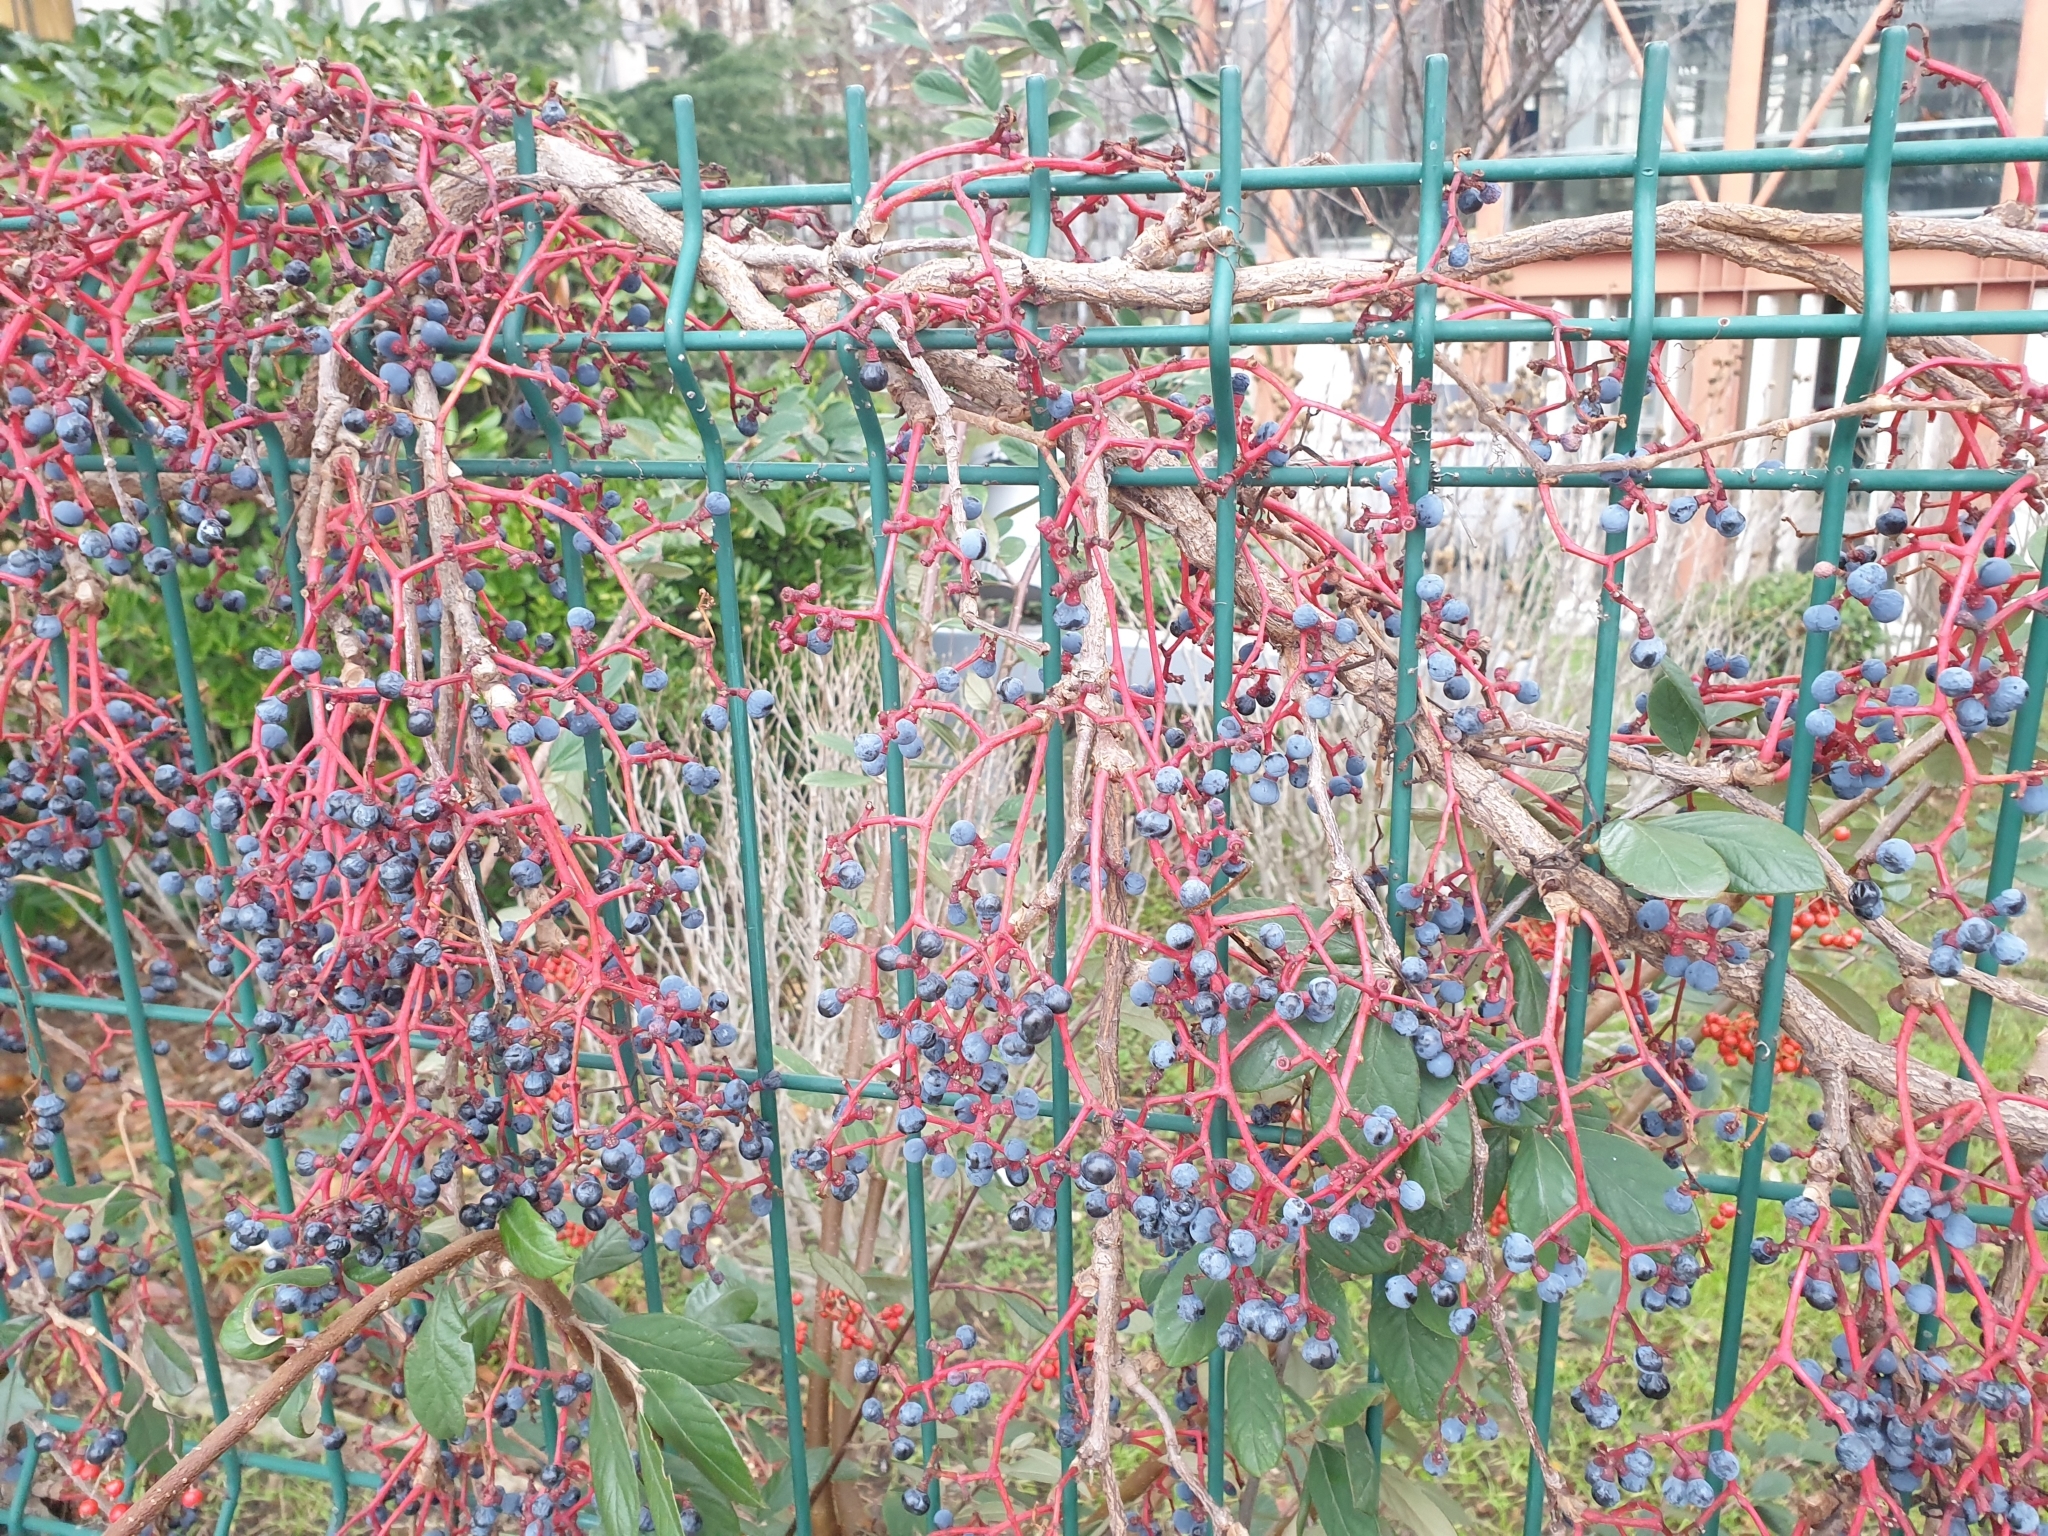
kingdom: Plantae
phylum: Tracheophyta
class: Magnoliopsida
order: Vitales
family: Vitaceae
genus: Parthenocissus
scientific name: Parthenocissus inserta
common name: False virginia-creeper
